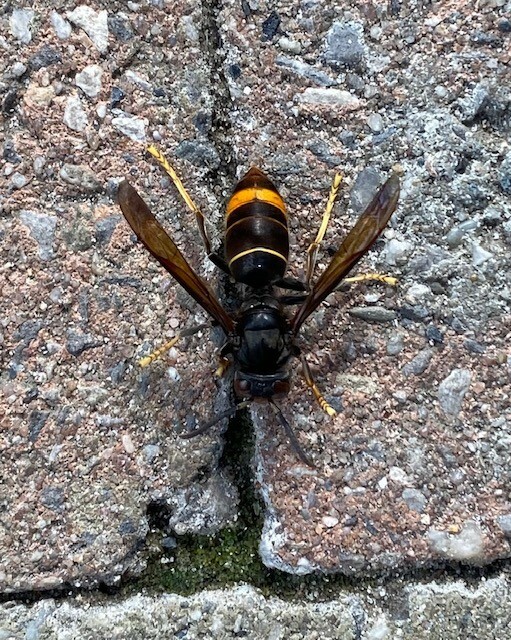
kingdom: Animalia
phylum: Arthropoda
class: Insecta
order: Hymenoptera
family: Vespidae
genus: Vespa
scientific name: Vespa velutina
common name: Asian hornet
